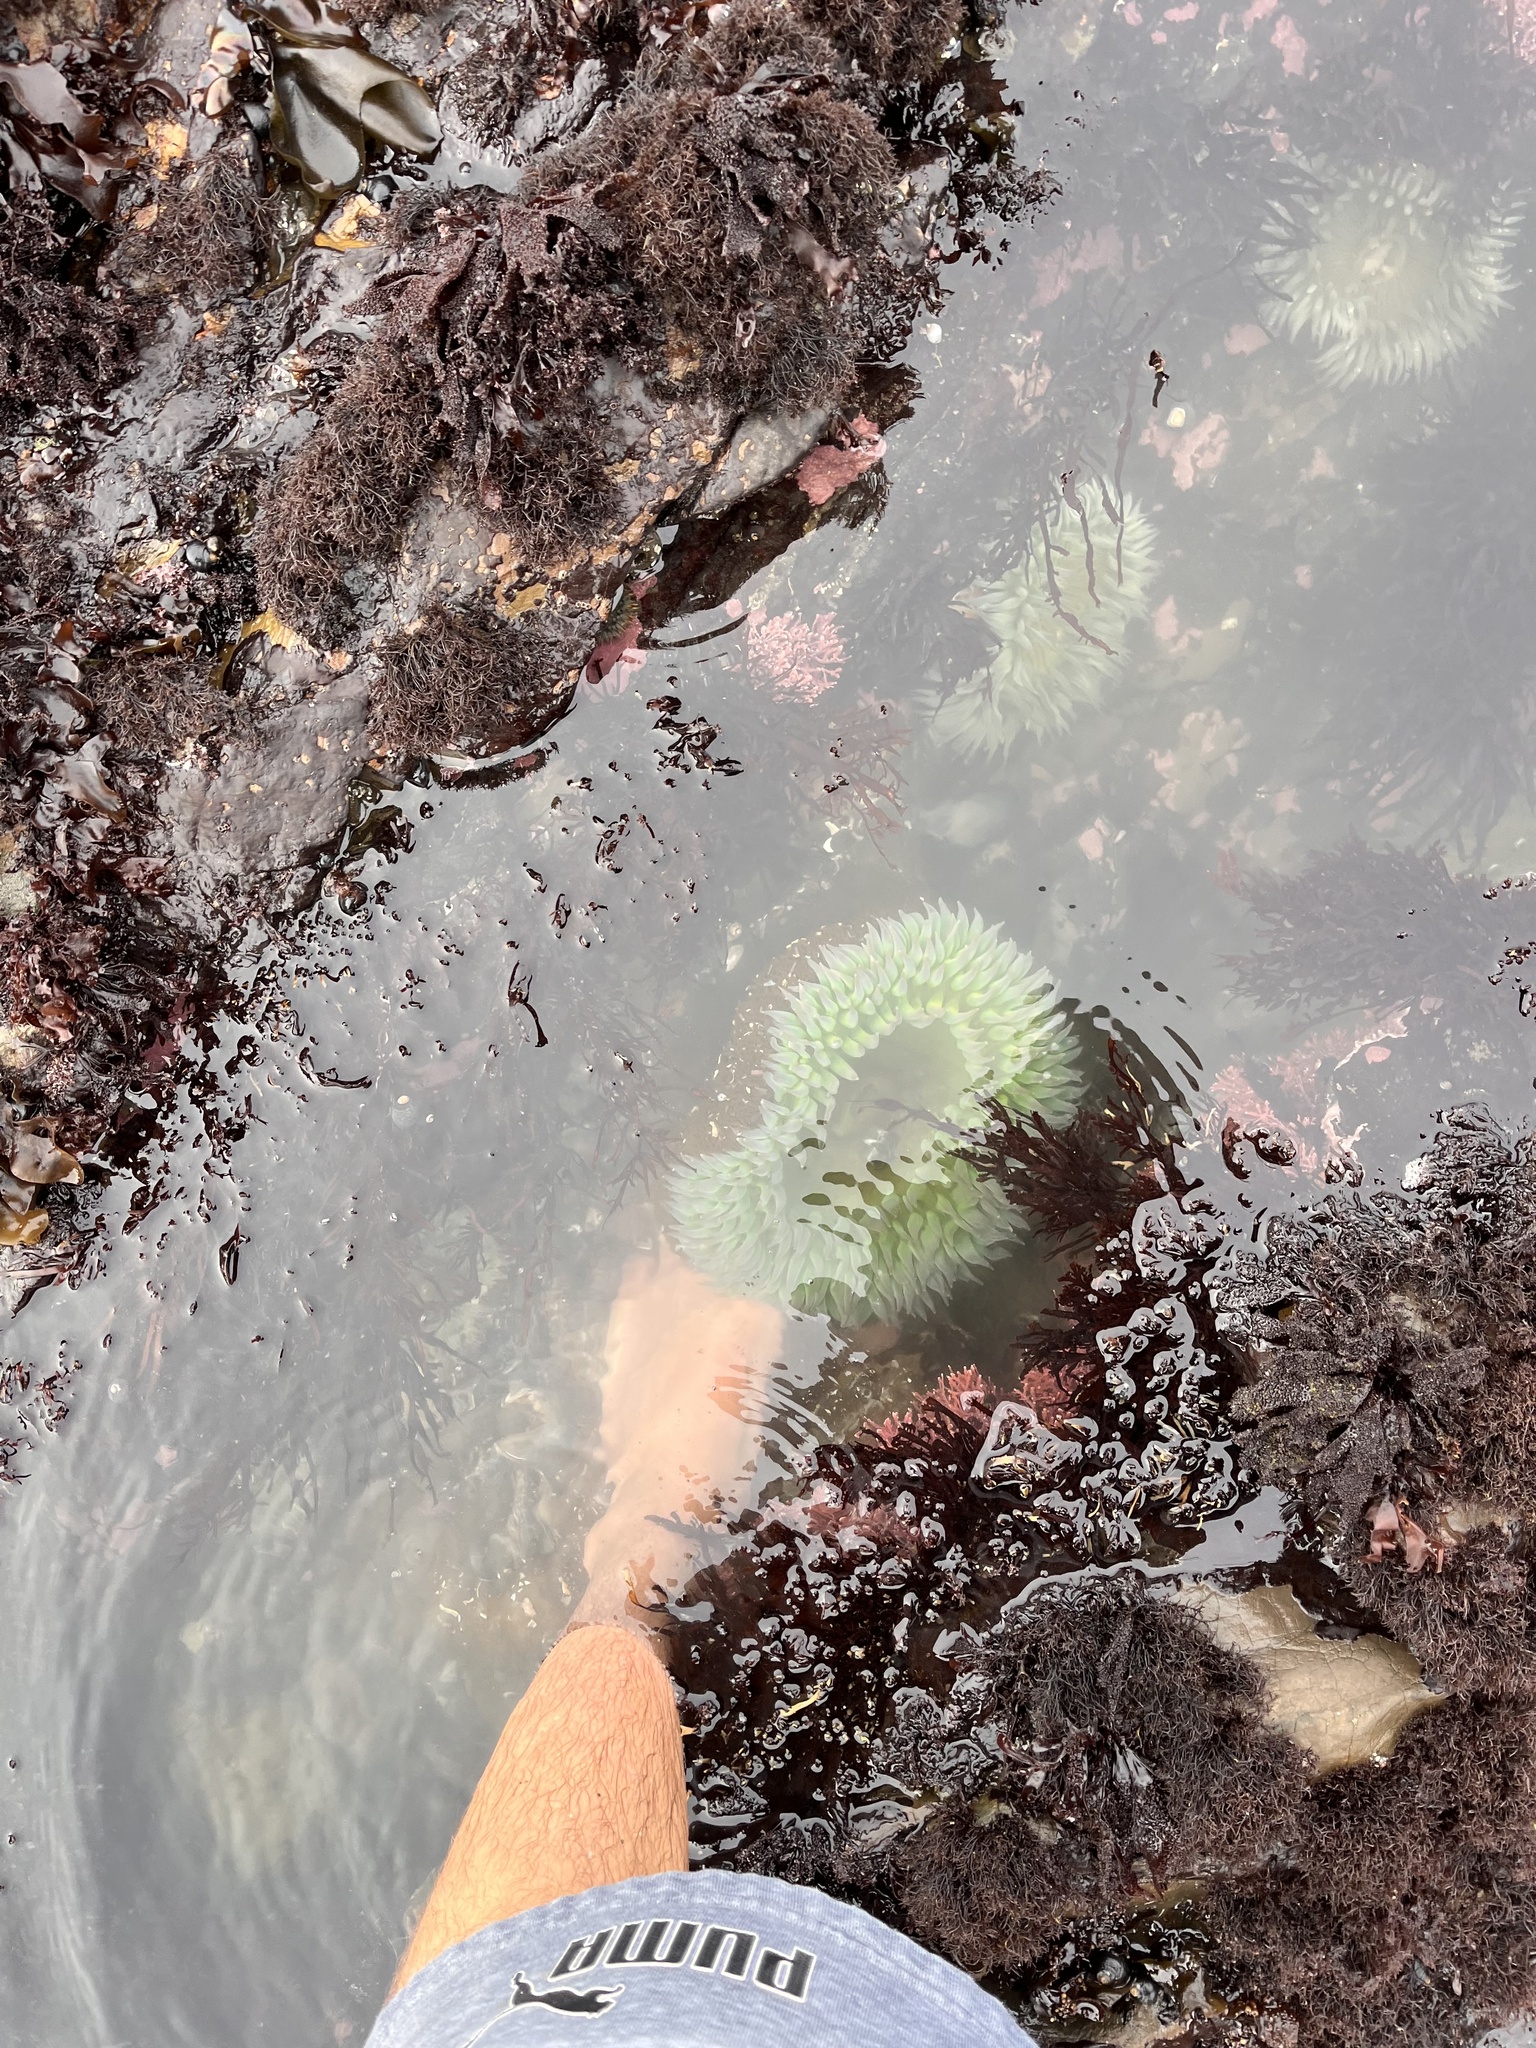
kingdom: Animalia
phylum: Cnidaria
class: Anthozoa
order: Actiniaria
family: Actiniidae
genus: Anthopleura
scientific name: Anthopleura xanthogrammica
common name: Giant green anemone
